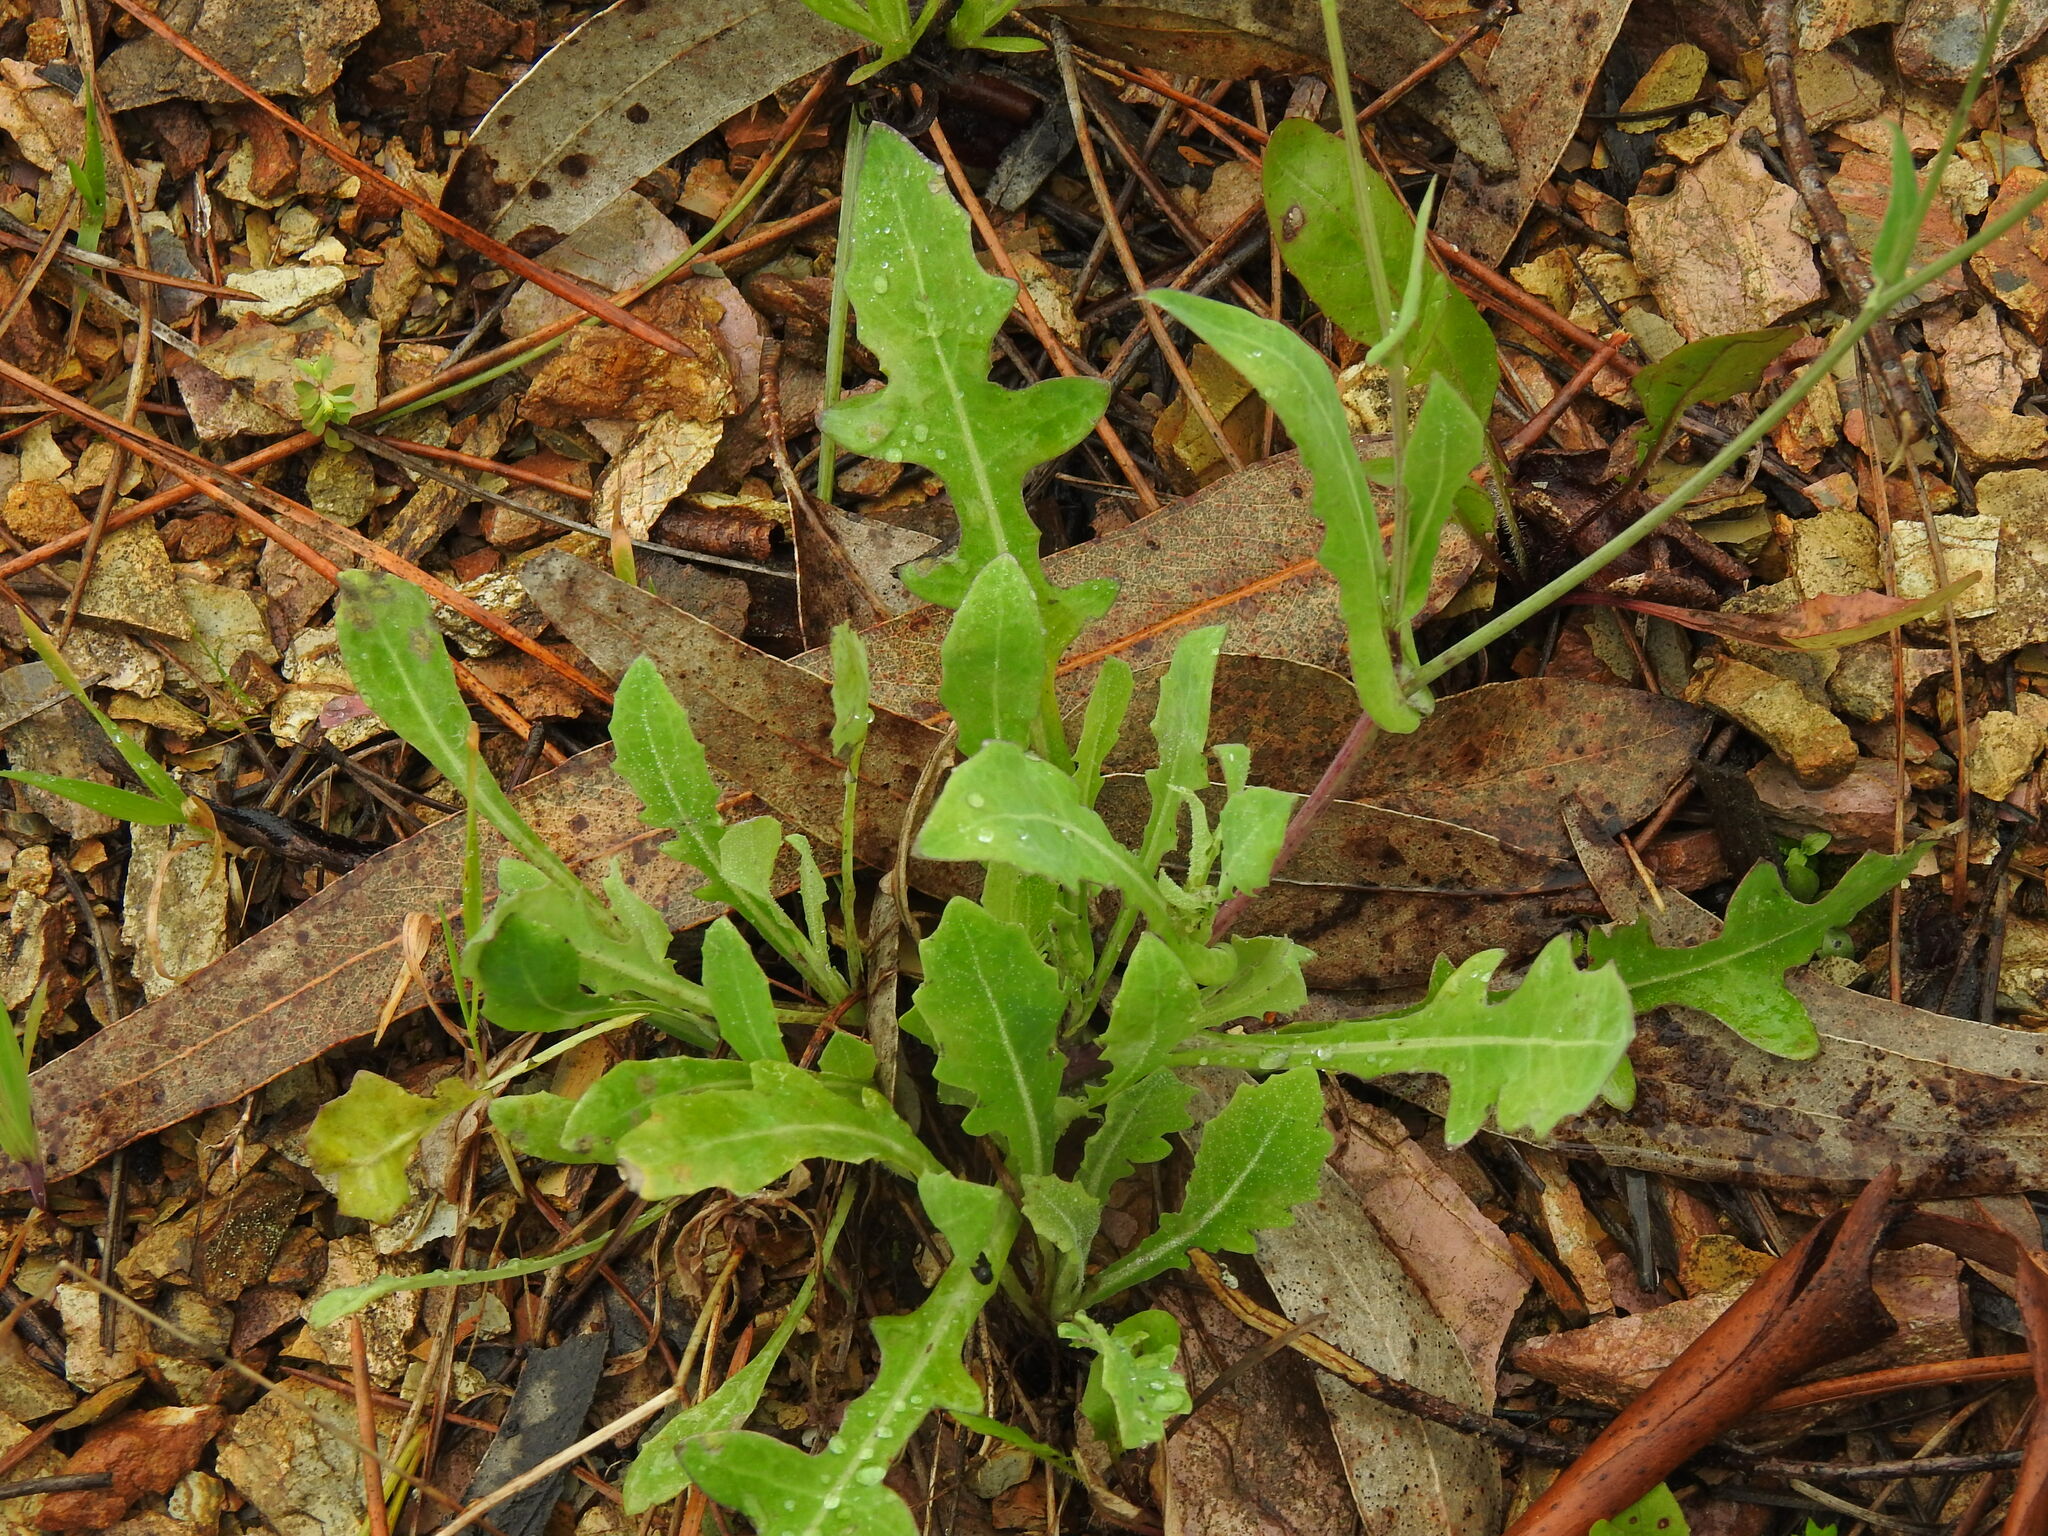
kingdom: Plantae
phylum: Tracheophyta
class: Magnoliopsida
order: Asterales
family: Asteraceae
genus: Reichardia
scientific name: Reichardia picroides
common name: Common brighteyes
